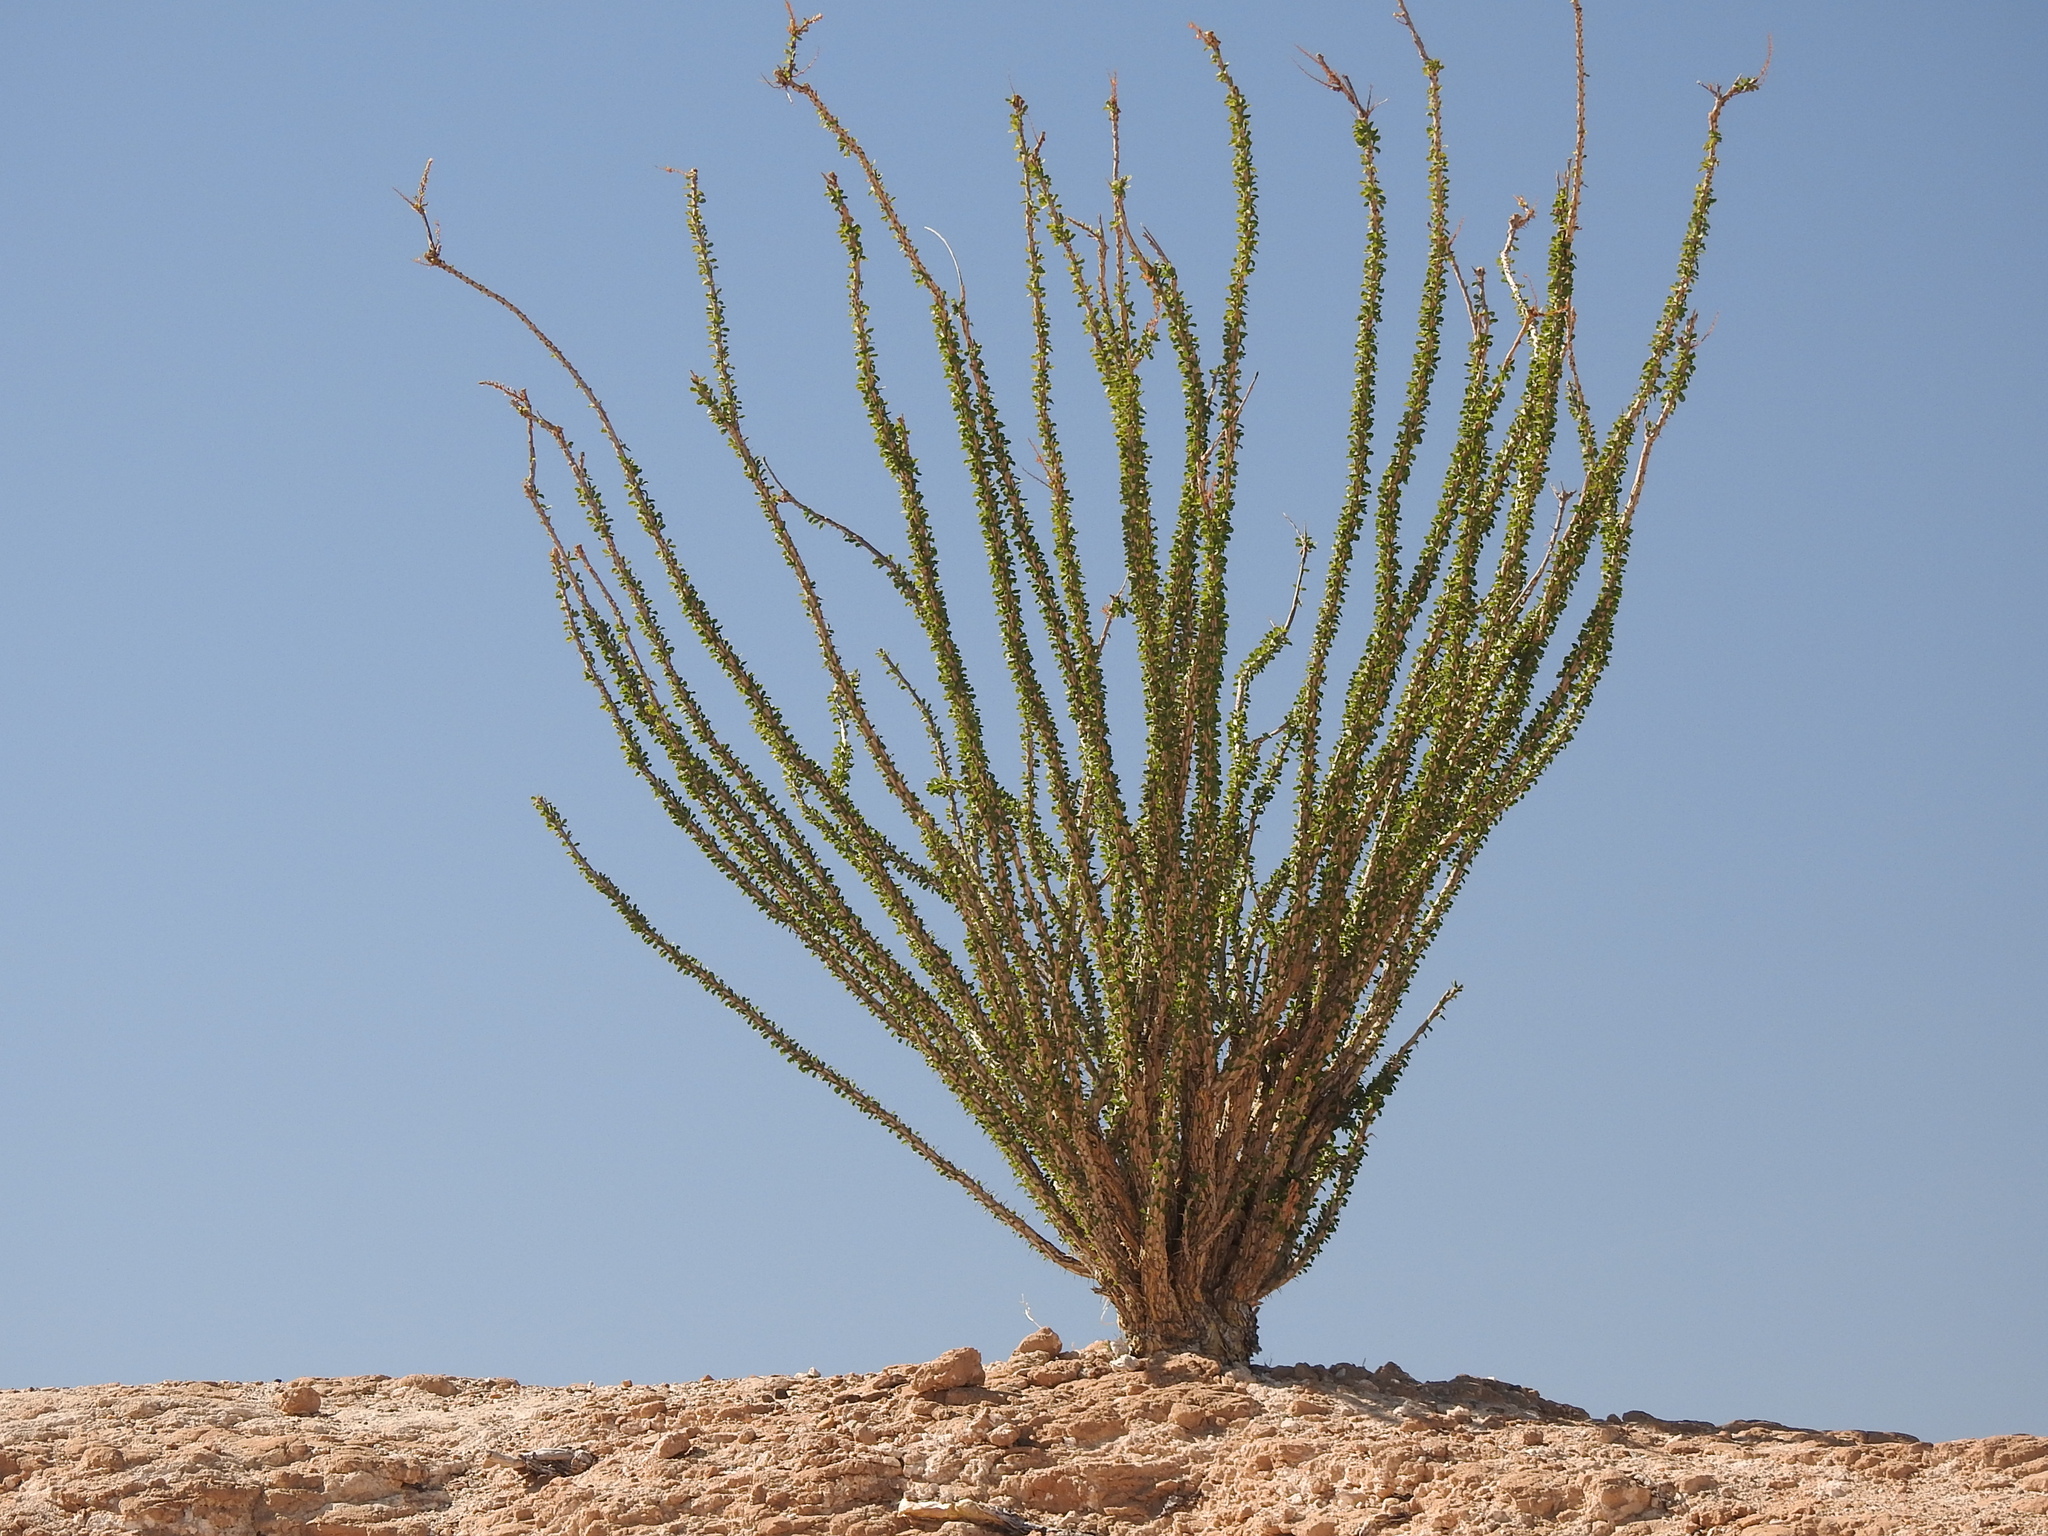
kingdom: Plantae
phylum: Tracheophyta
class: Magnoliopsida
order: Ericales
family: Fouquieriaceae
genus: Fouquieria
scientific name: Fouquieria splendens
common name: Vine-cactus
